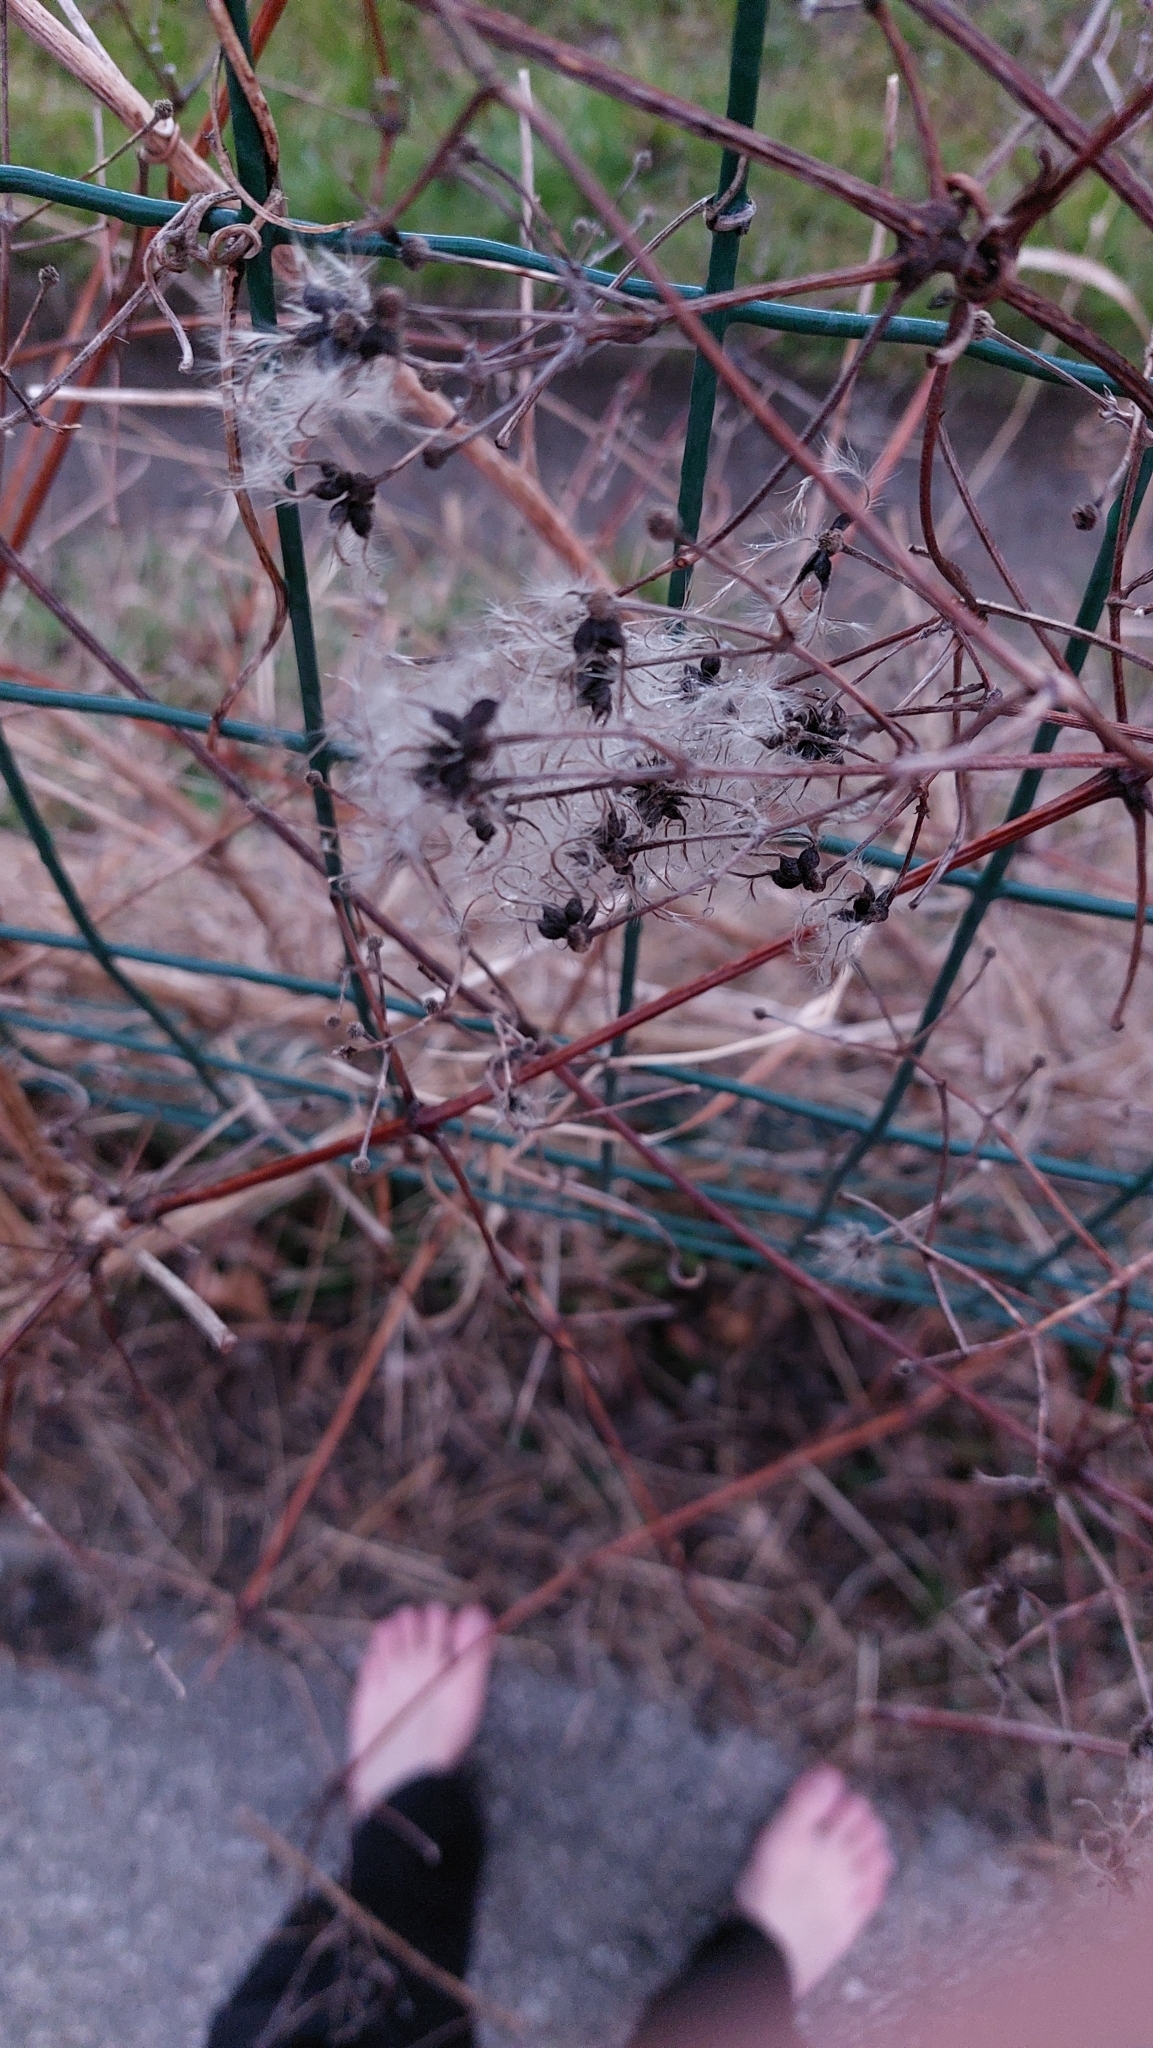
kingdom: Plantae
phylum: Tracheophyta
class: Magnoliopsida
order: Ranunculales
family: Ranunculaceae
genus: Clematis
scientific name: Clematis vitalba
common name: Evergreen clematis
